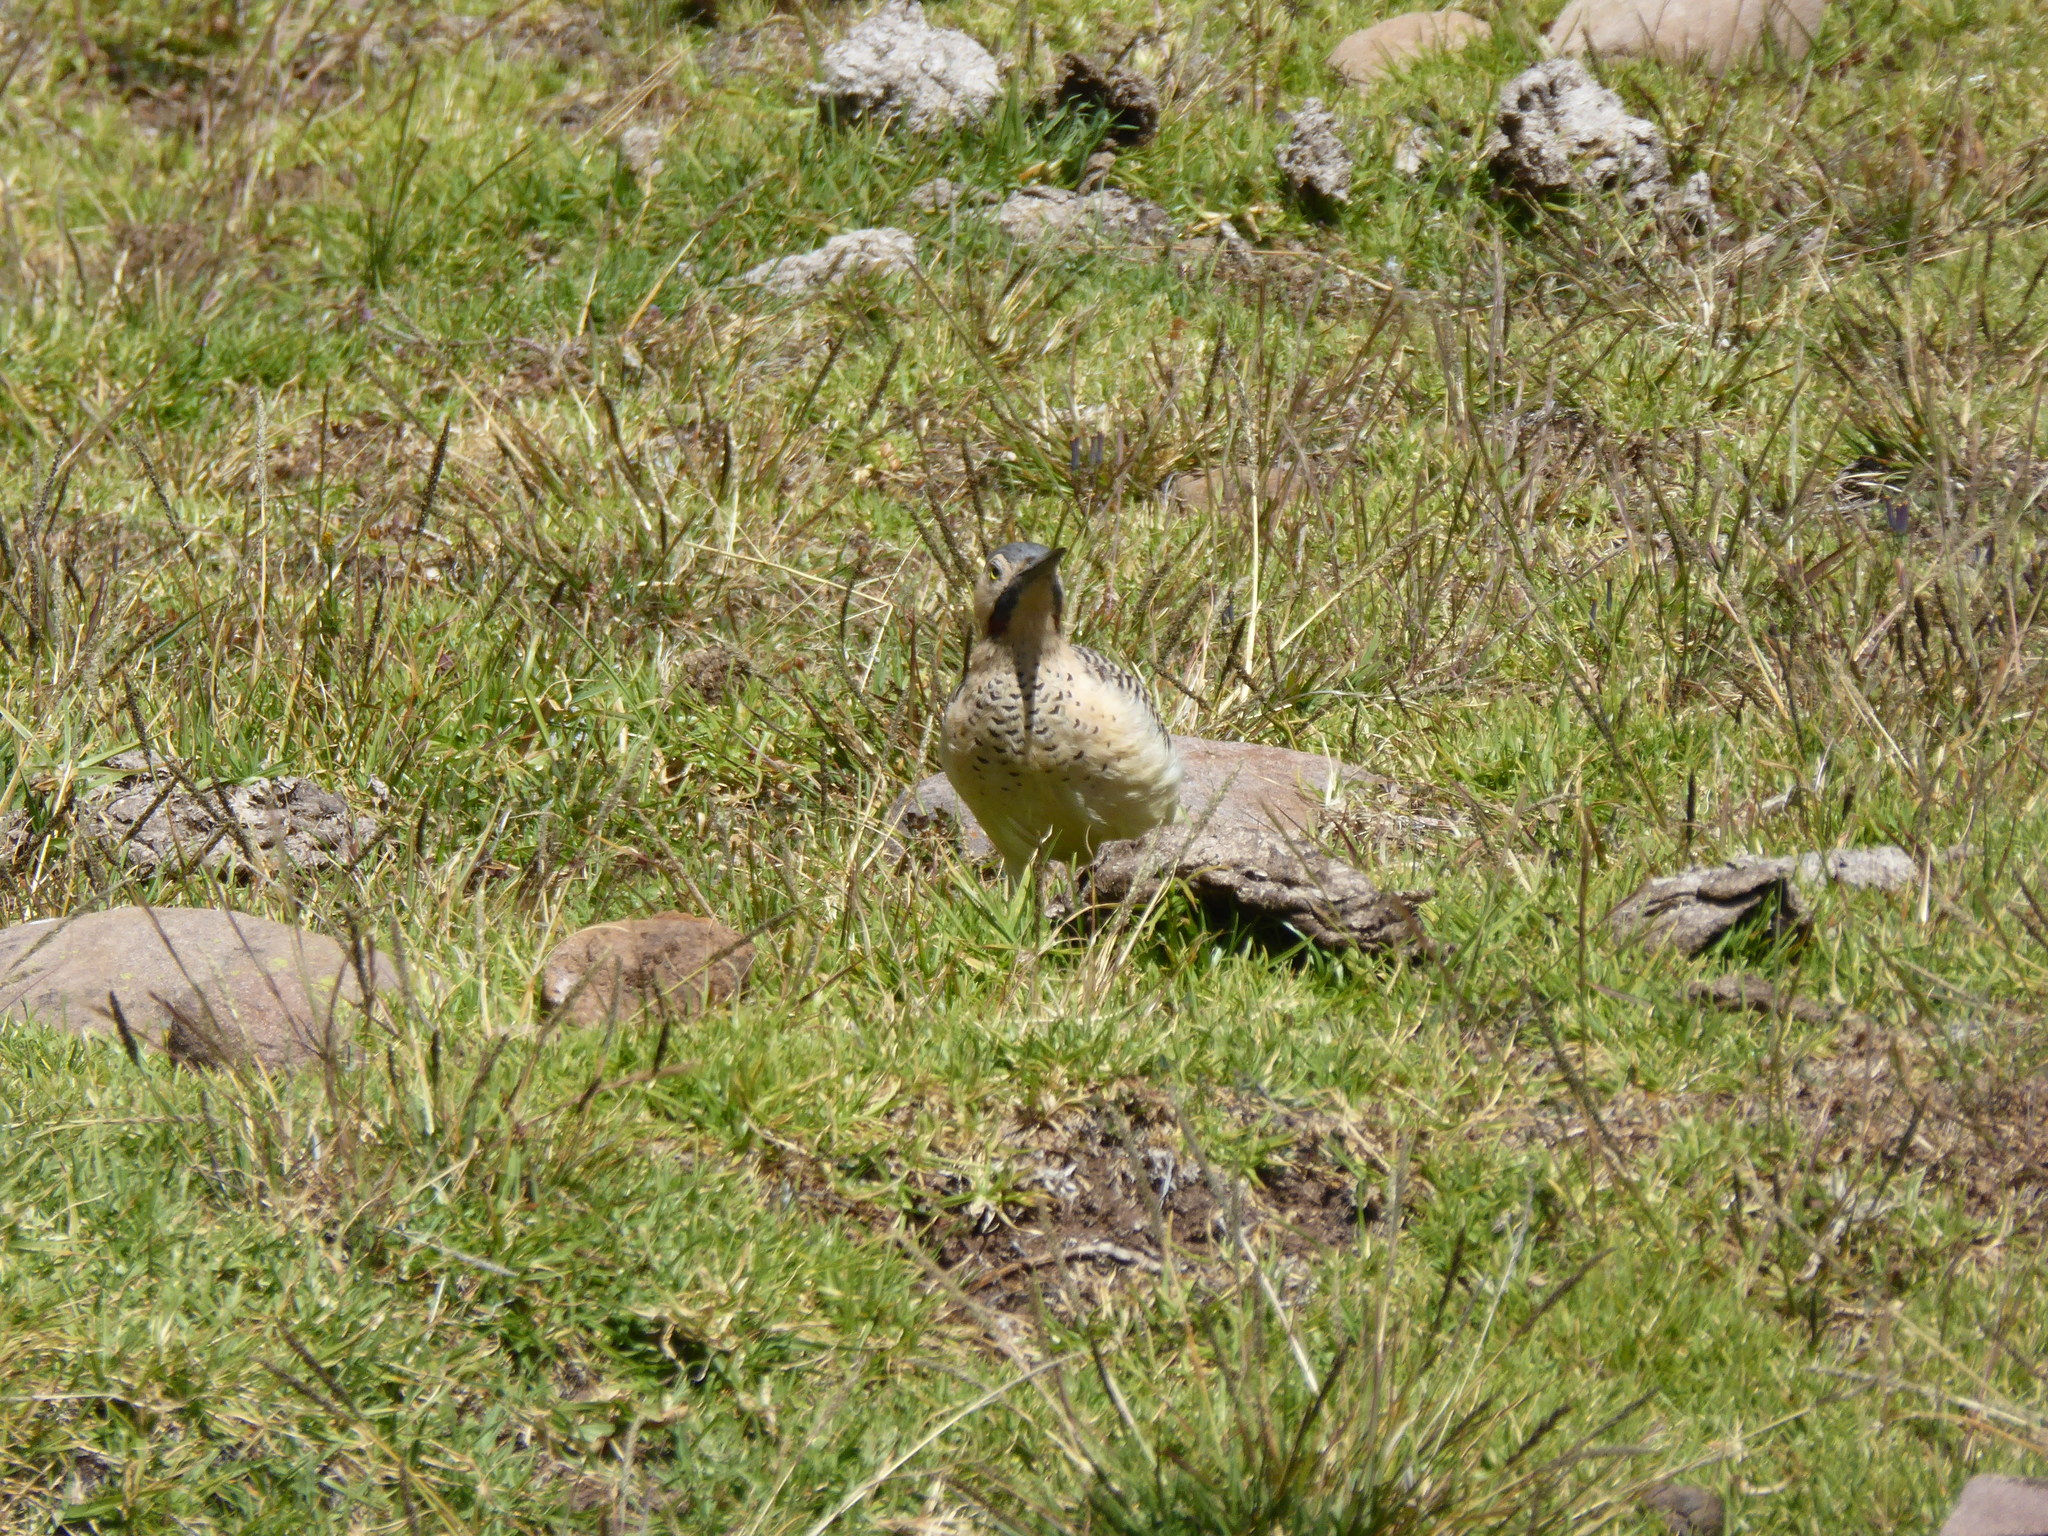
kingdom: Animalia
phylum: Chordata
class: Aves
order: Piciformes
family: Picidae
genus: Colaptes
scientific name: Colaptes rupicola
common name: Andean flicker
